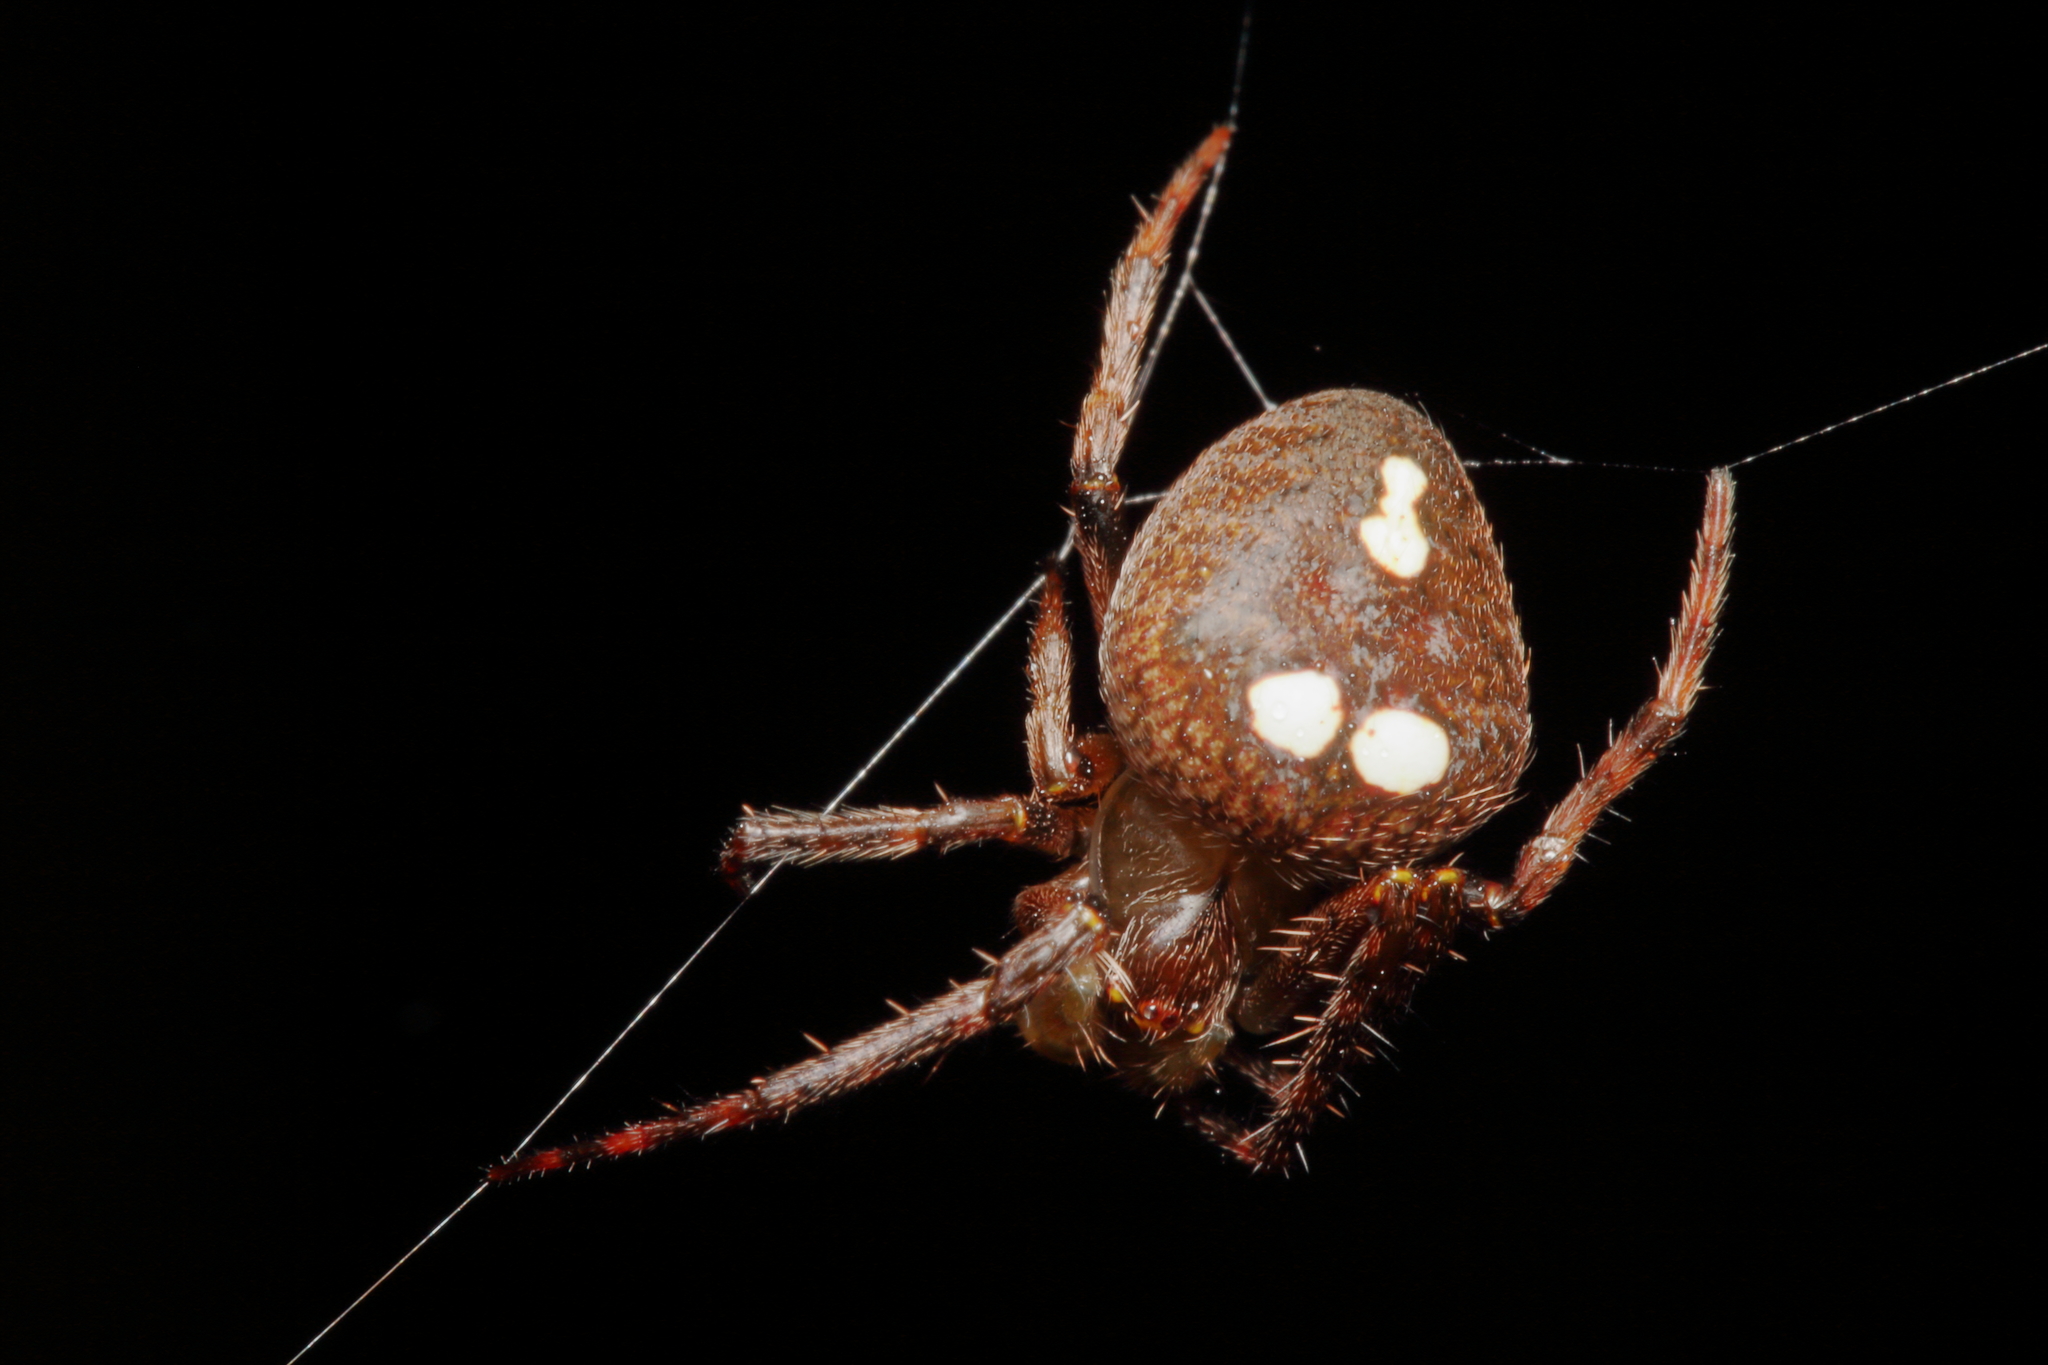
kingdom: Animalia
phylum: Arthropoda
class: Arachnida
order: Araneae
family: Araneidae
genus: Zealaranea
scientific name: Zealaranea trinotata
